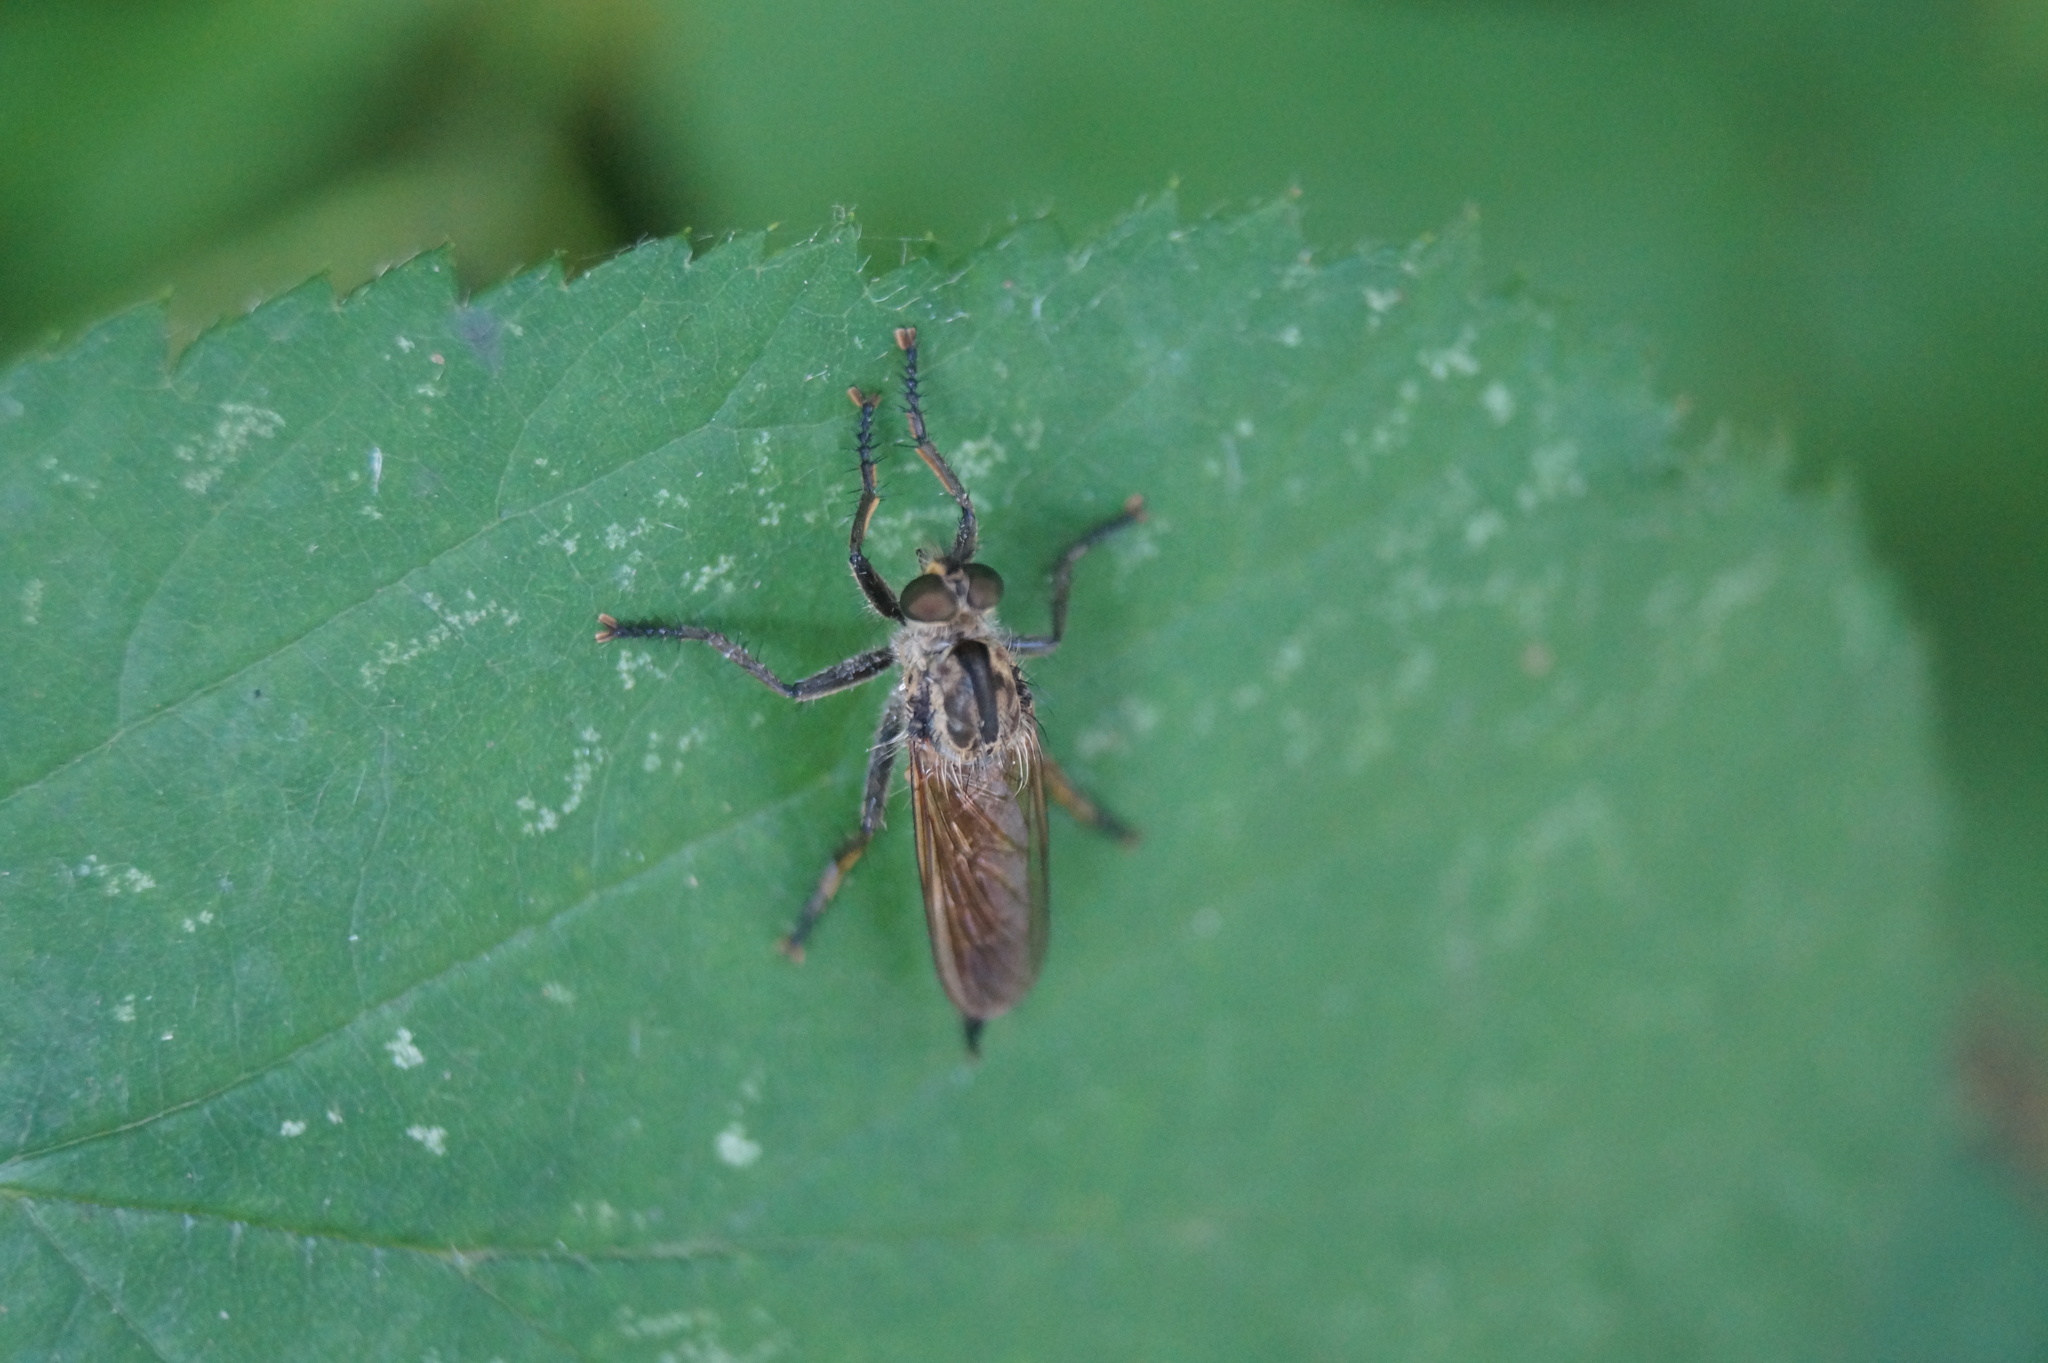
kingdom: Animalia
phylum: Arthropoda
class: Insecta
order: Diptera
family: Asilidae
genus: Eutolmus
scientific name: Eutolmus rufibarbis
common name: Golden-tabbed robberfly
